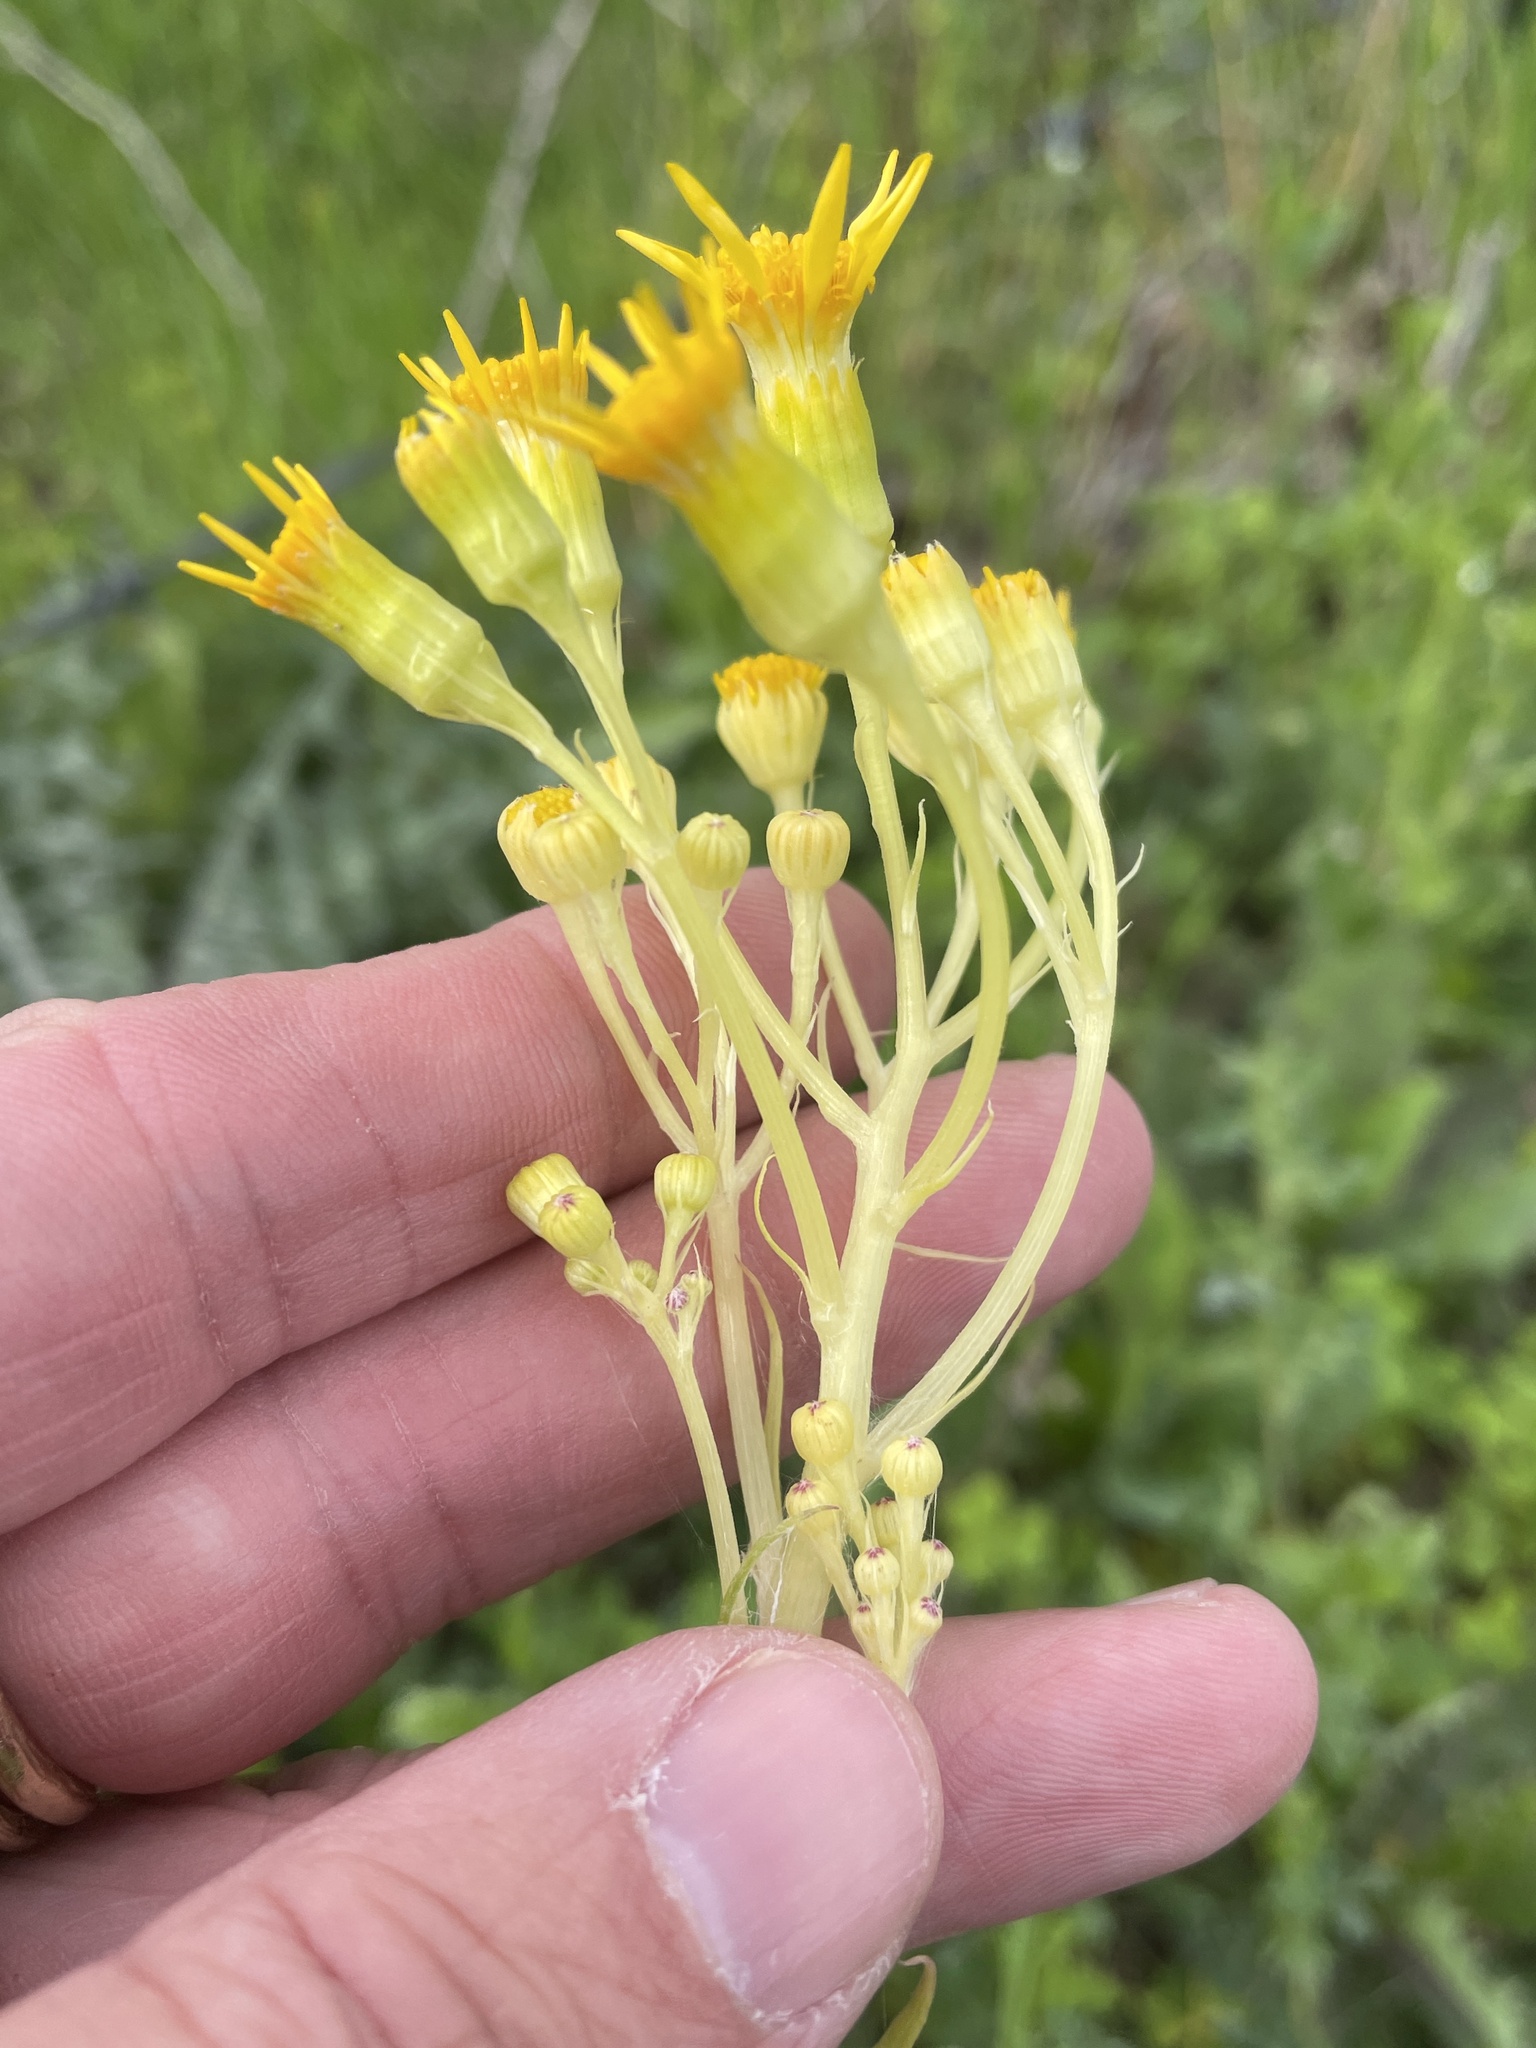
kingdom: Plantae
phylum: Tracheophyta
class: Magnoliopsida
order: Asterales
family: Asteraceae
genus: Senecio
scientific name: Senecio ampullaceus
